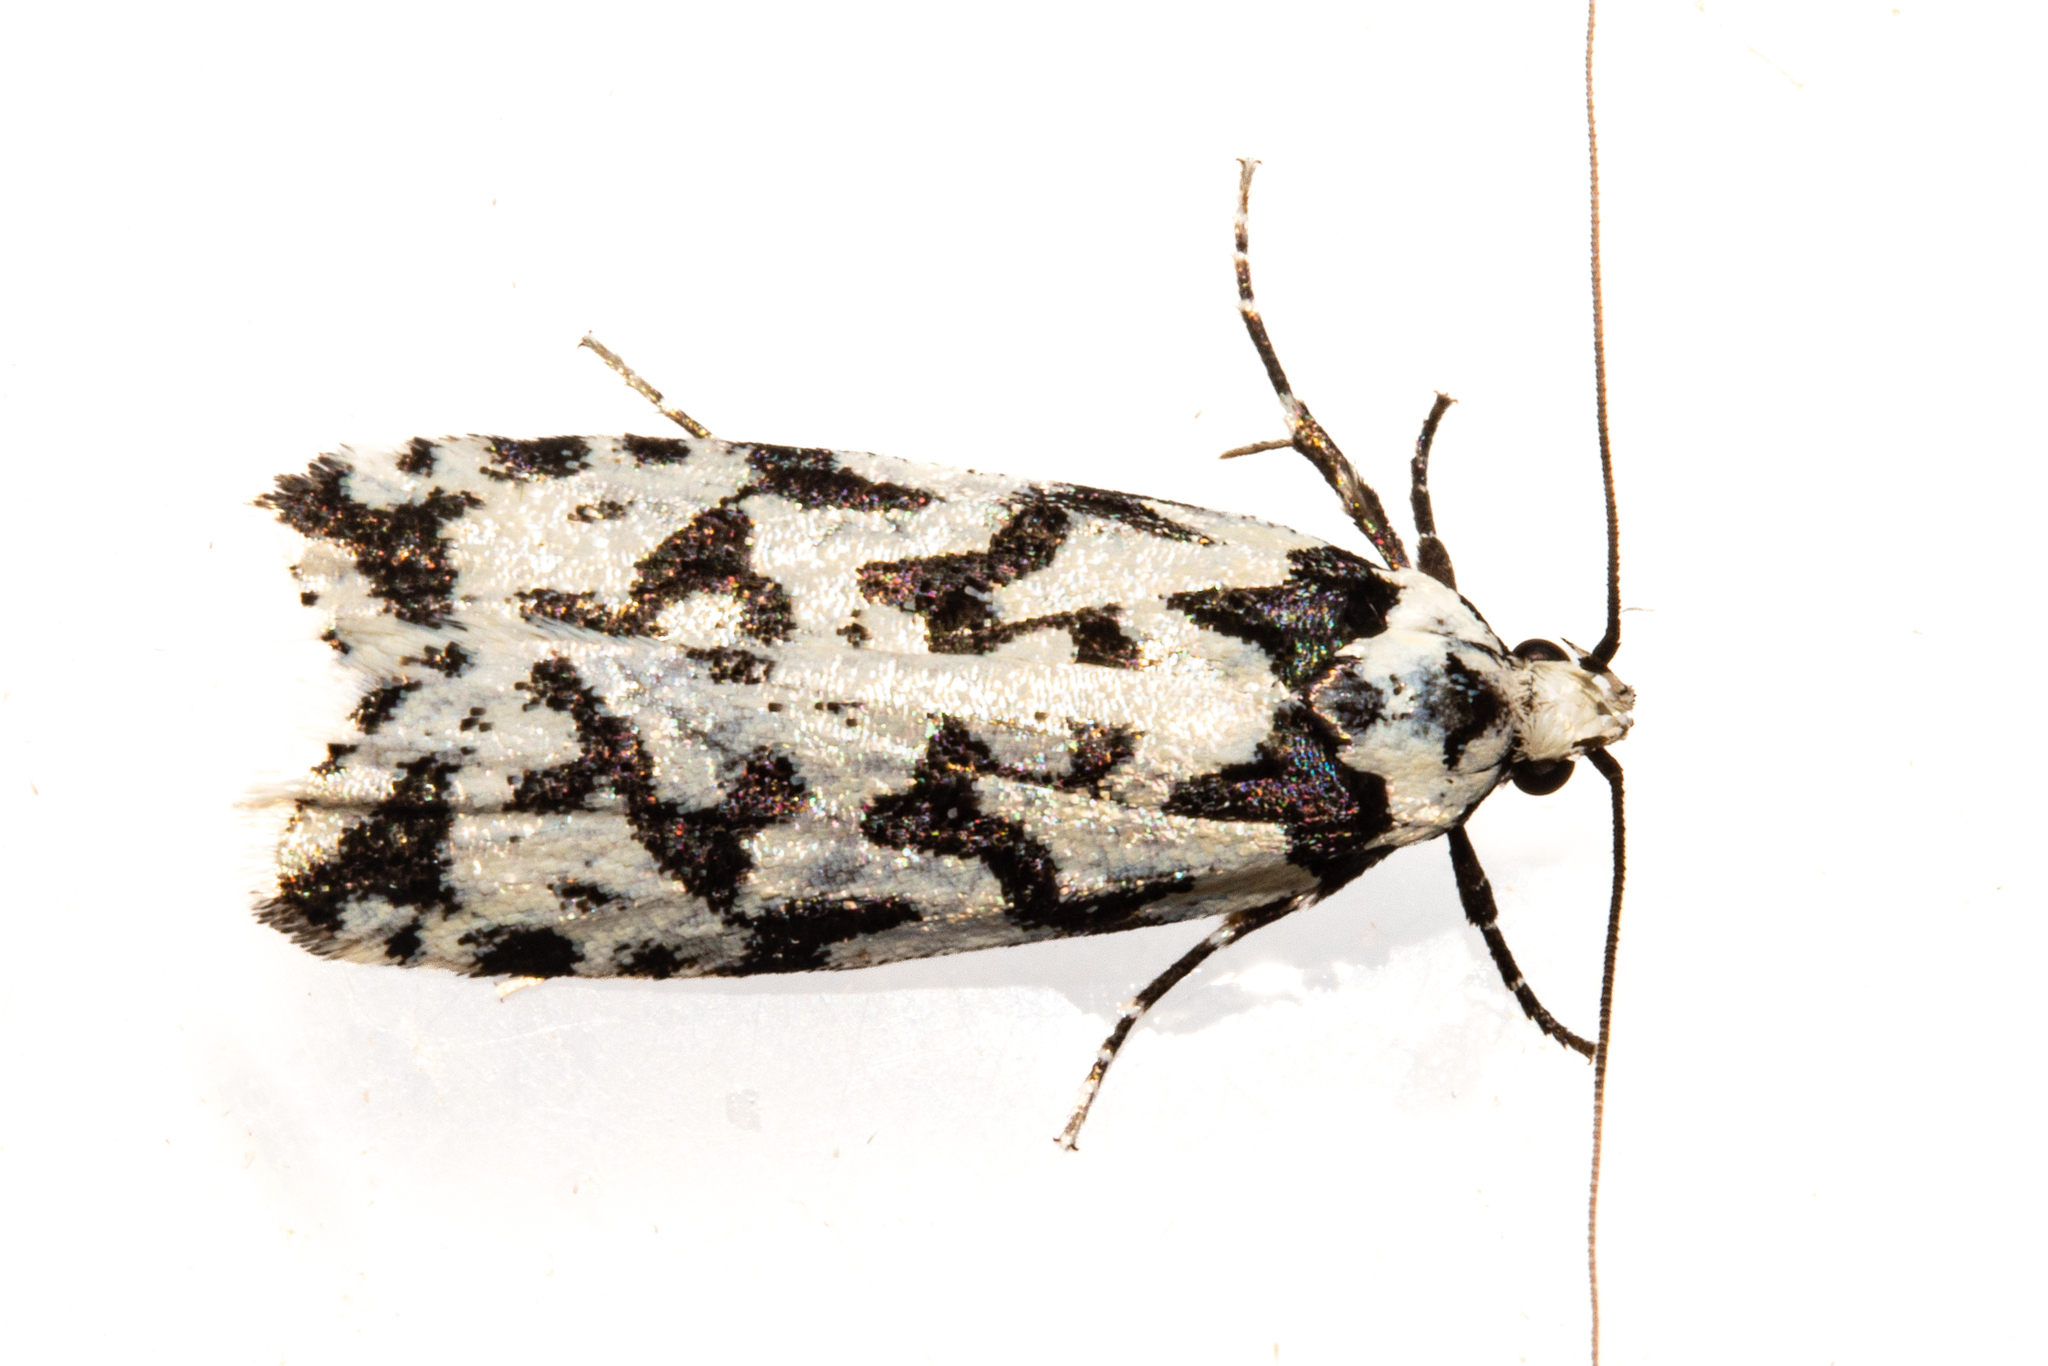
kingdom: Animalia
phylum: Arthropoda
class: Insecta
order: Lepidoptera
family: Oecophoridae
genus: Izatha
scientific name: Izatha acmonias
